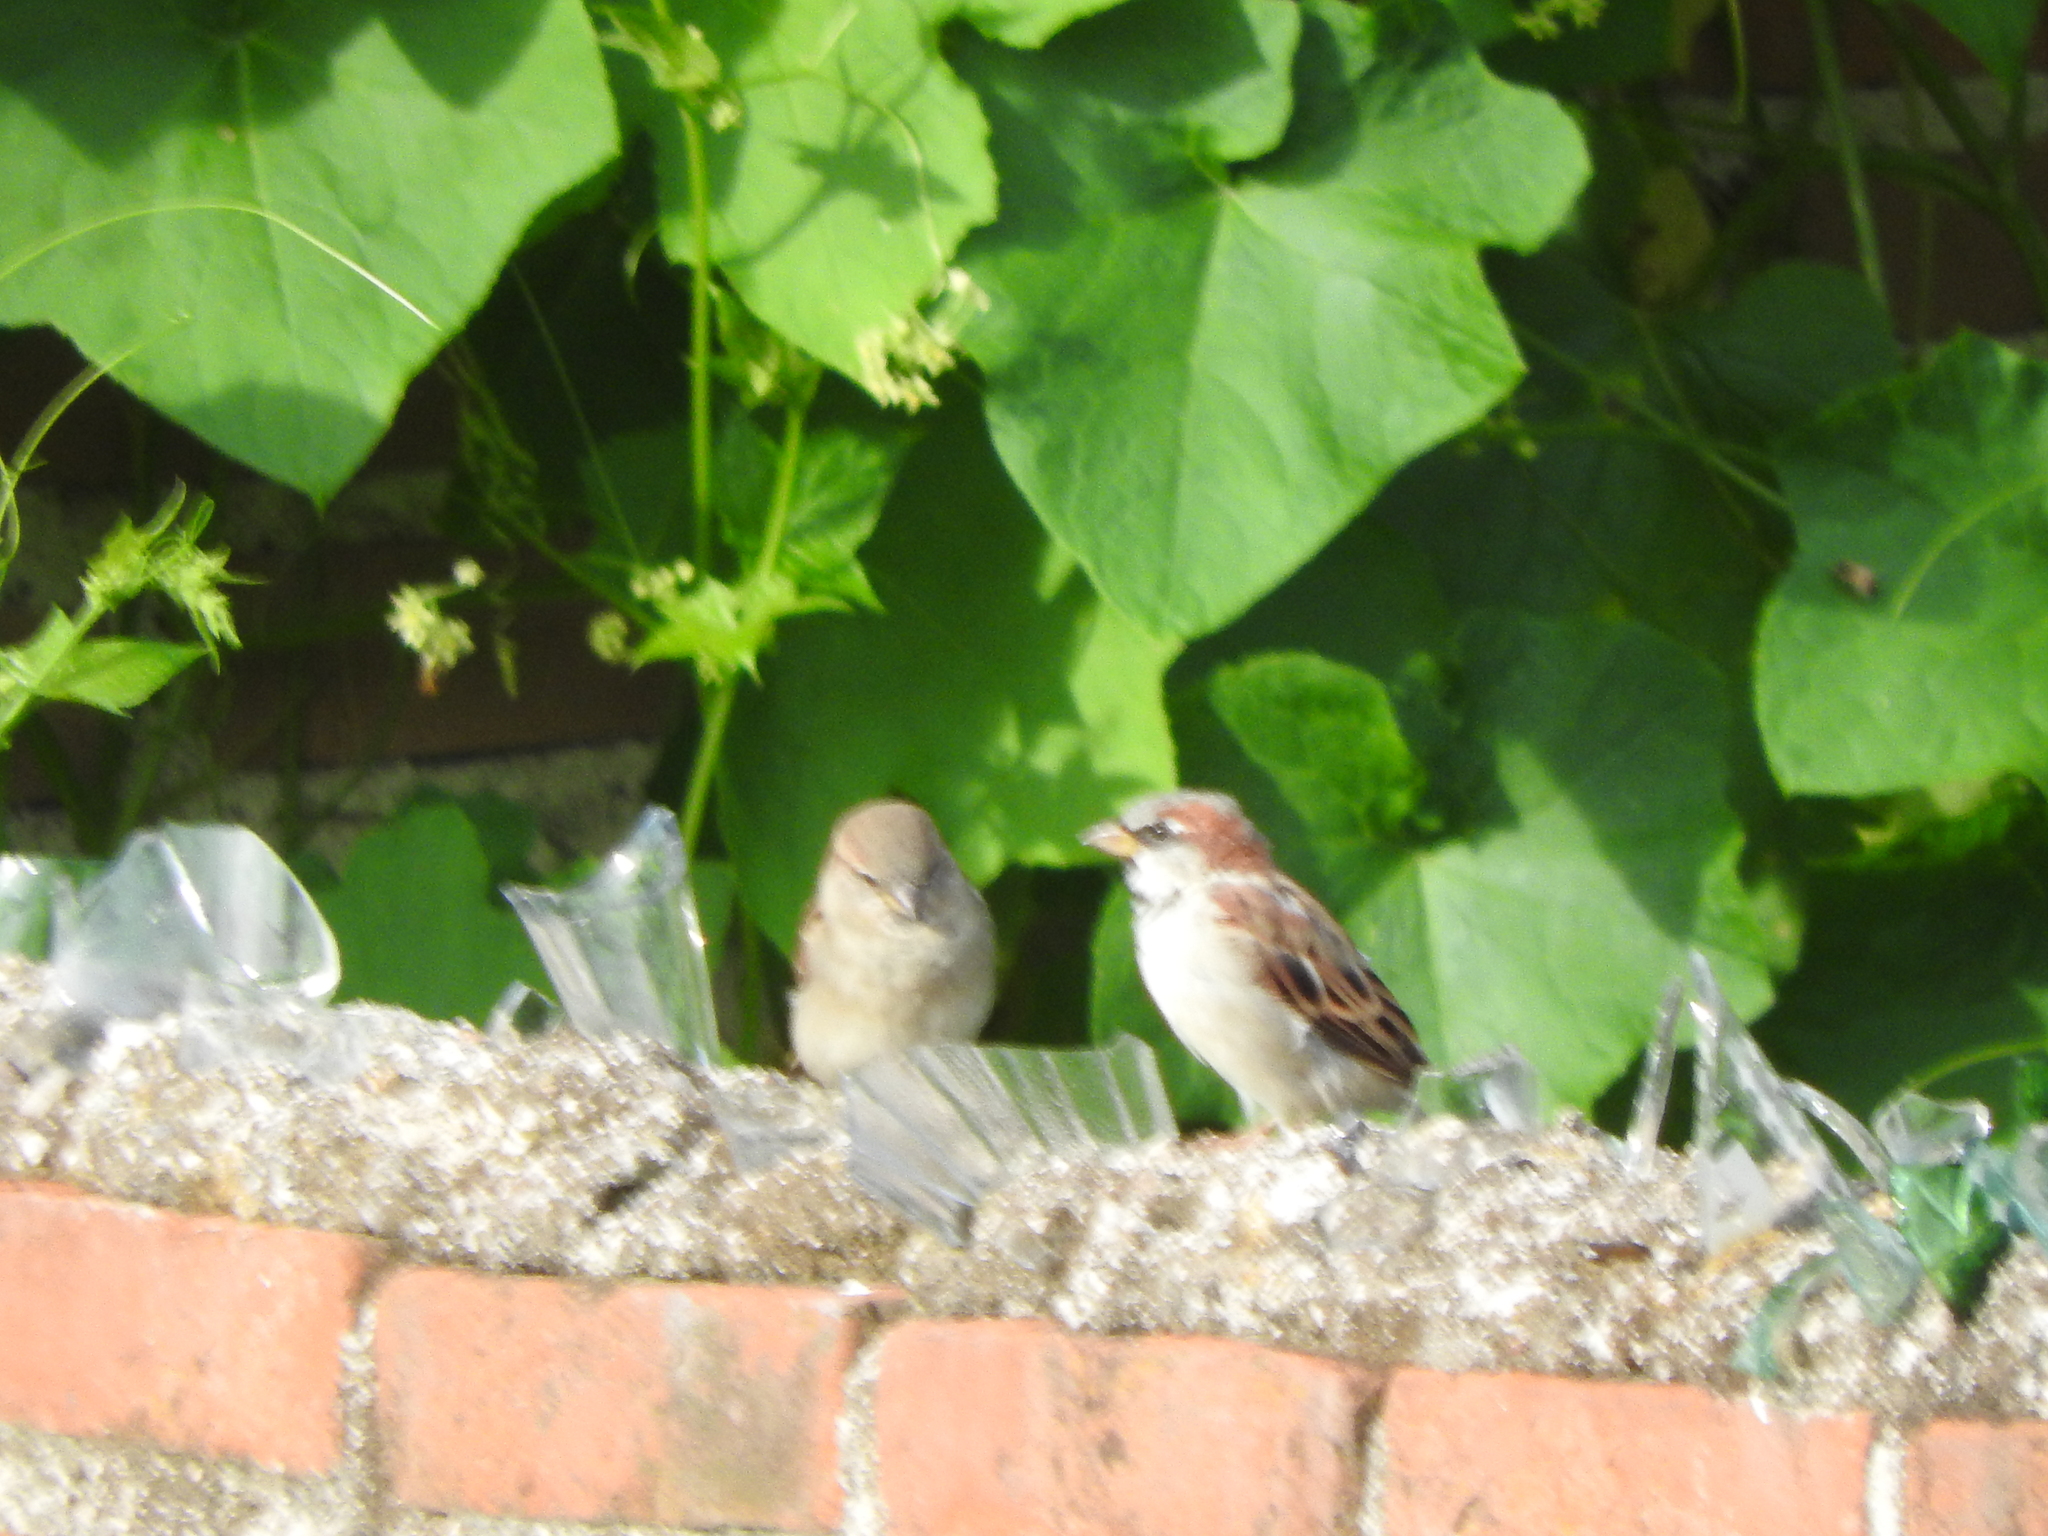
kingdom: Animalia
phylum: Chordata
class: Aves
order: Passeriformes
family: Passeridae
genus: Passer
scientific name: Passer domesticus
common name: House sparrow
